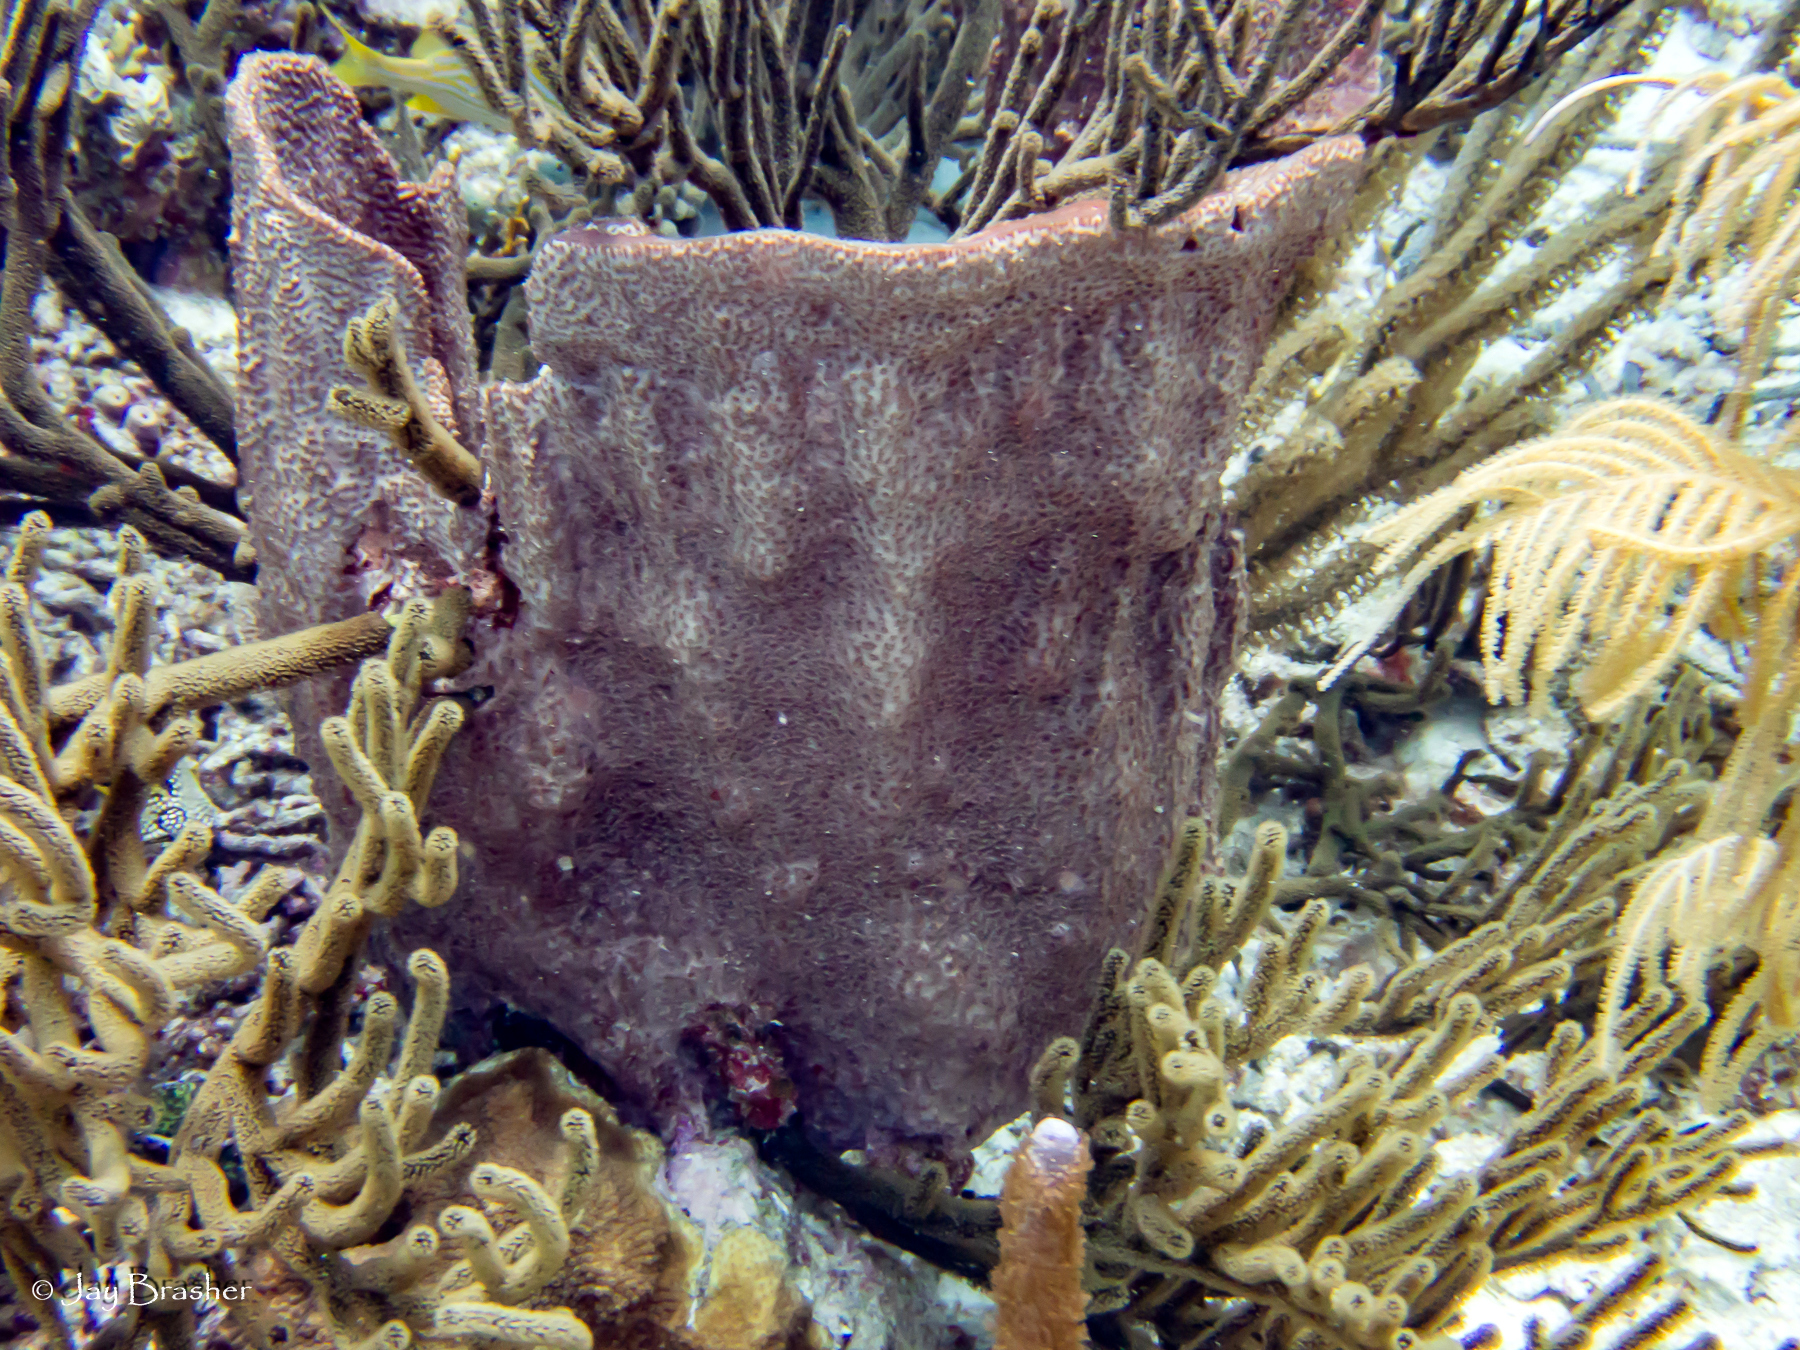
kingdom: Animalia
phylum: Porifera
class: Demospongiae
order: Dictyoceratida
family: Irciniidae
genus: Ircinia
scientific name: Ircinia campana
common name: Vase sponge
